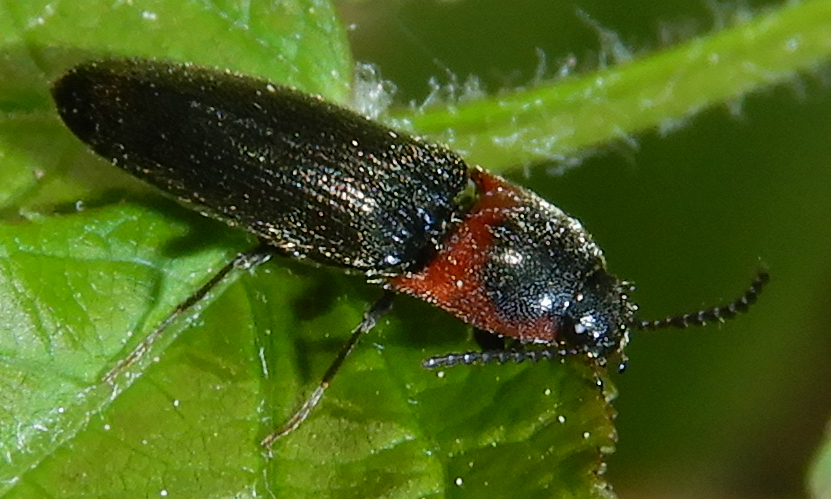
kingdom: Animalia
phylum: Arthropoda
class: Insecta
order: Coleoptera
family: Elateridae
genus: Ampedus
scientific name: Ampedus rubricus
